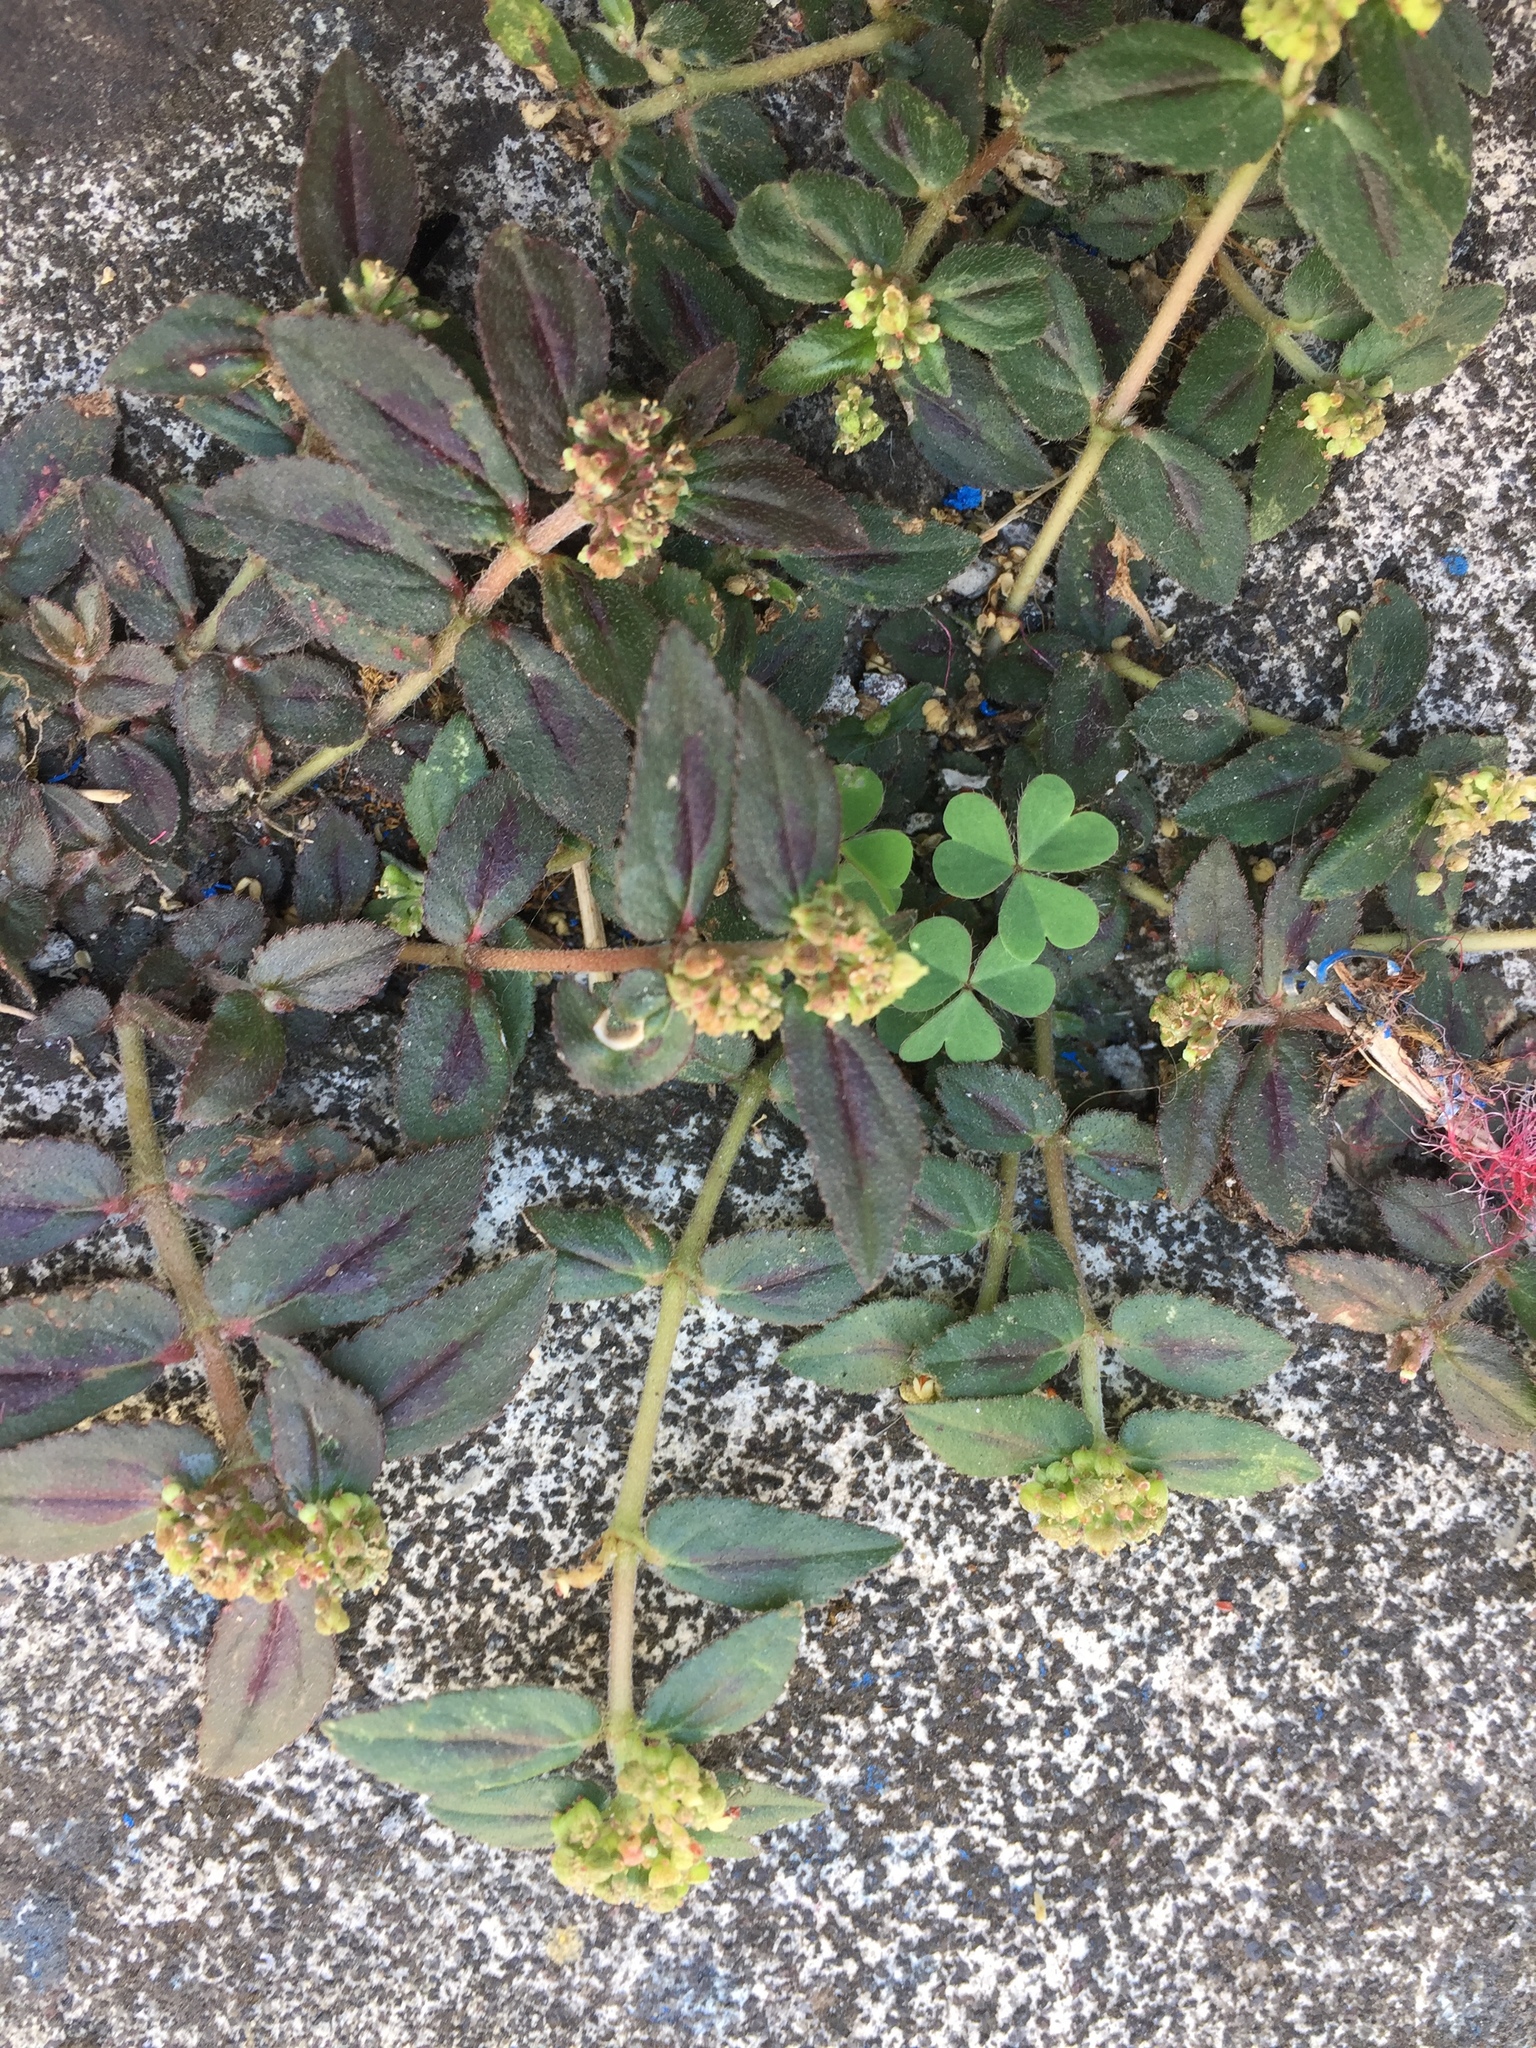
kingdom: Plantae
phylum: Tracheophyta
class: Magnoliopsida
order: Malpighiales
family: Euphorbiaceae
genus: Euphorbia
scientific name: Euphorbia hirta
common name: Pillpod sandmat
